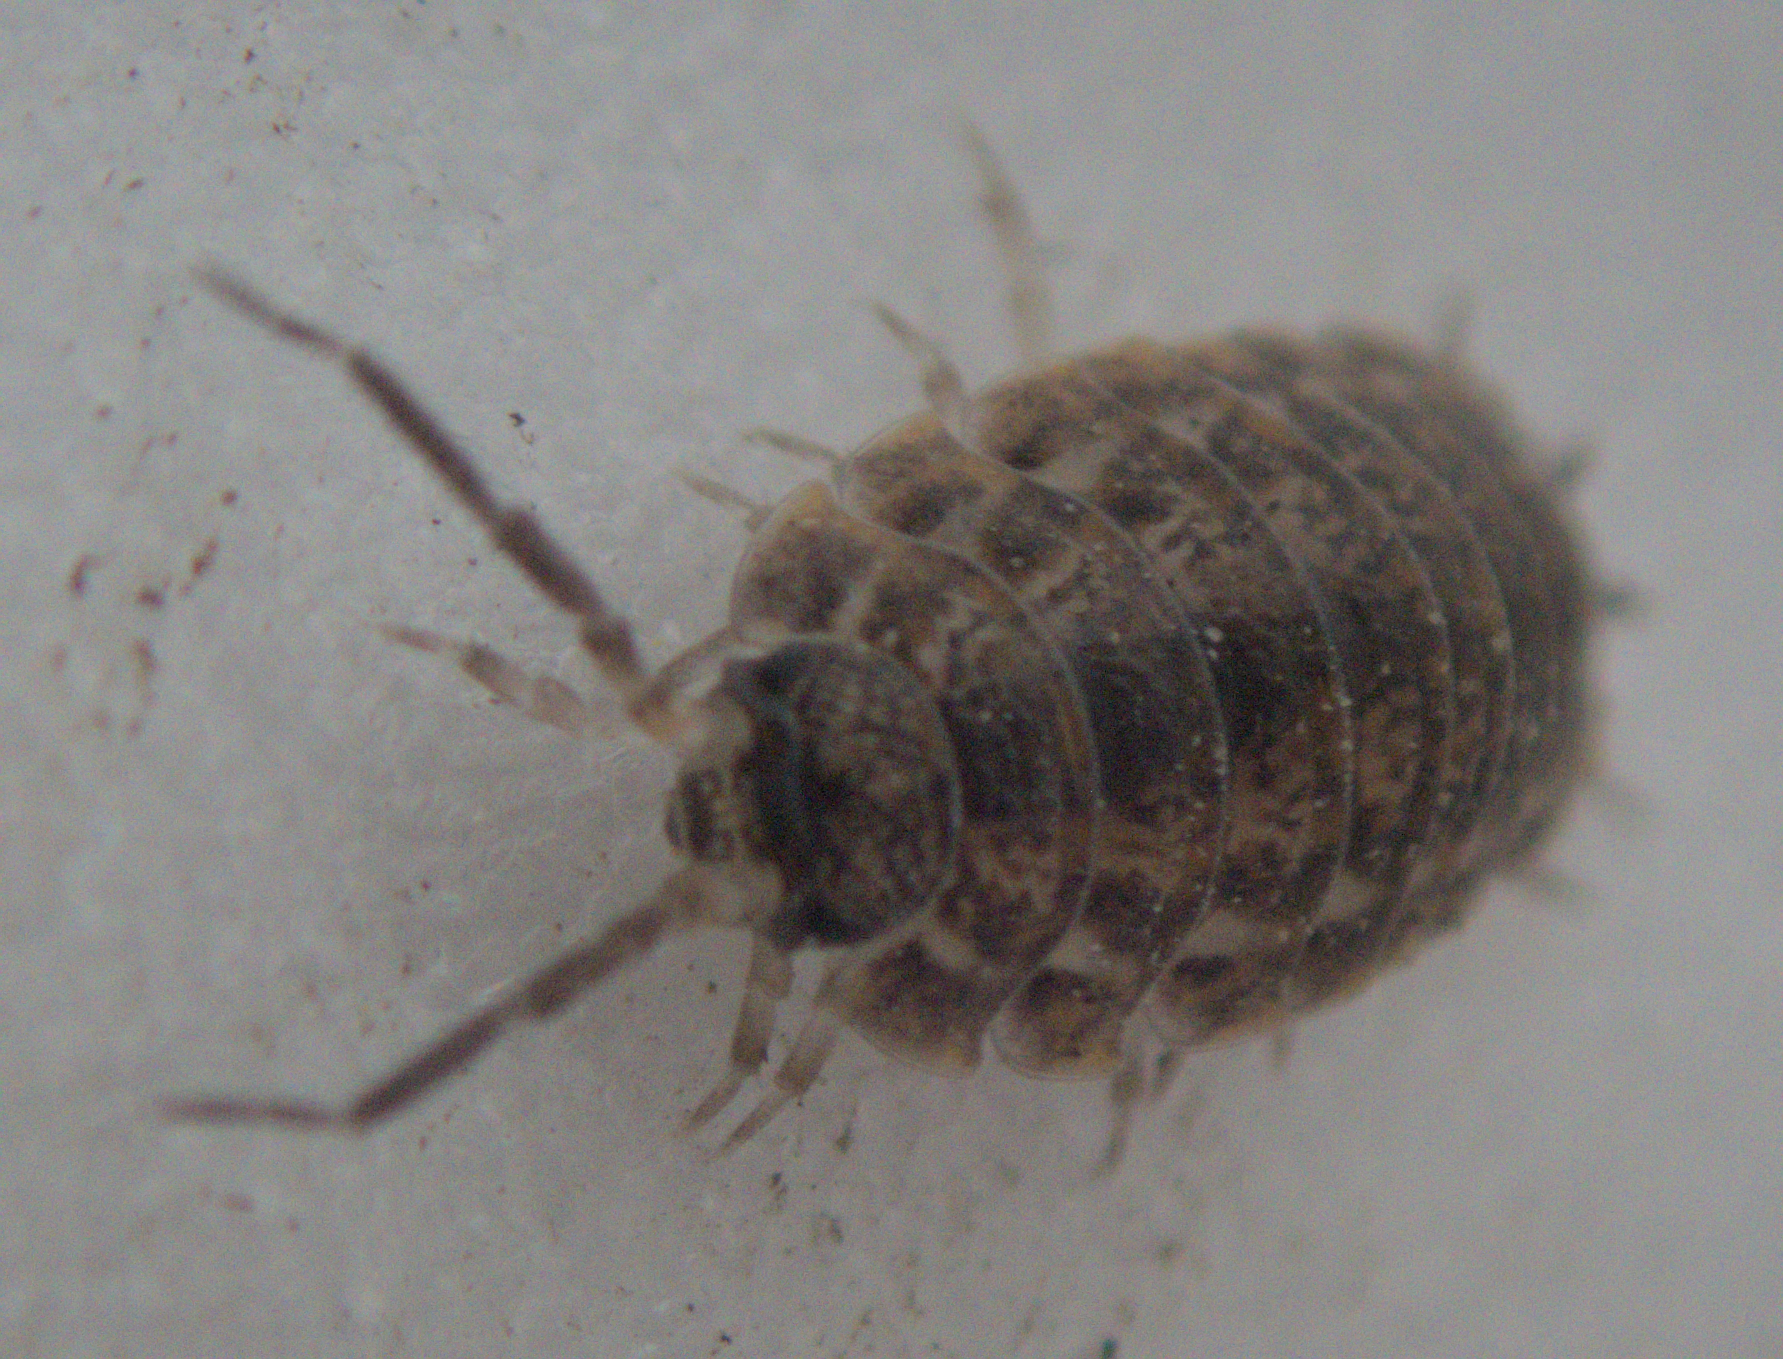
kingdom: Animalia
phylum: Arthropoda
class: Malacostraca
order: Isopoda
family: Trachelipodidae
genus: Trachelipus
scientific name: Trachelipus rathkii
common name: Isopod
